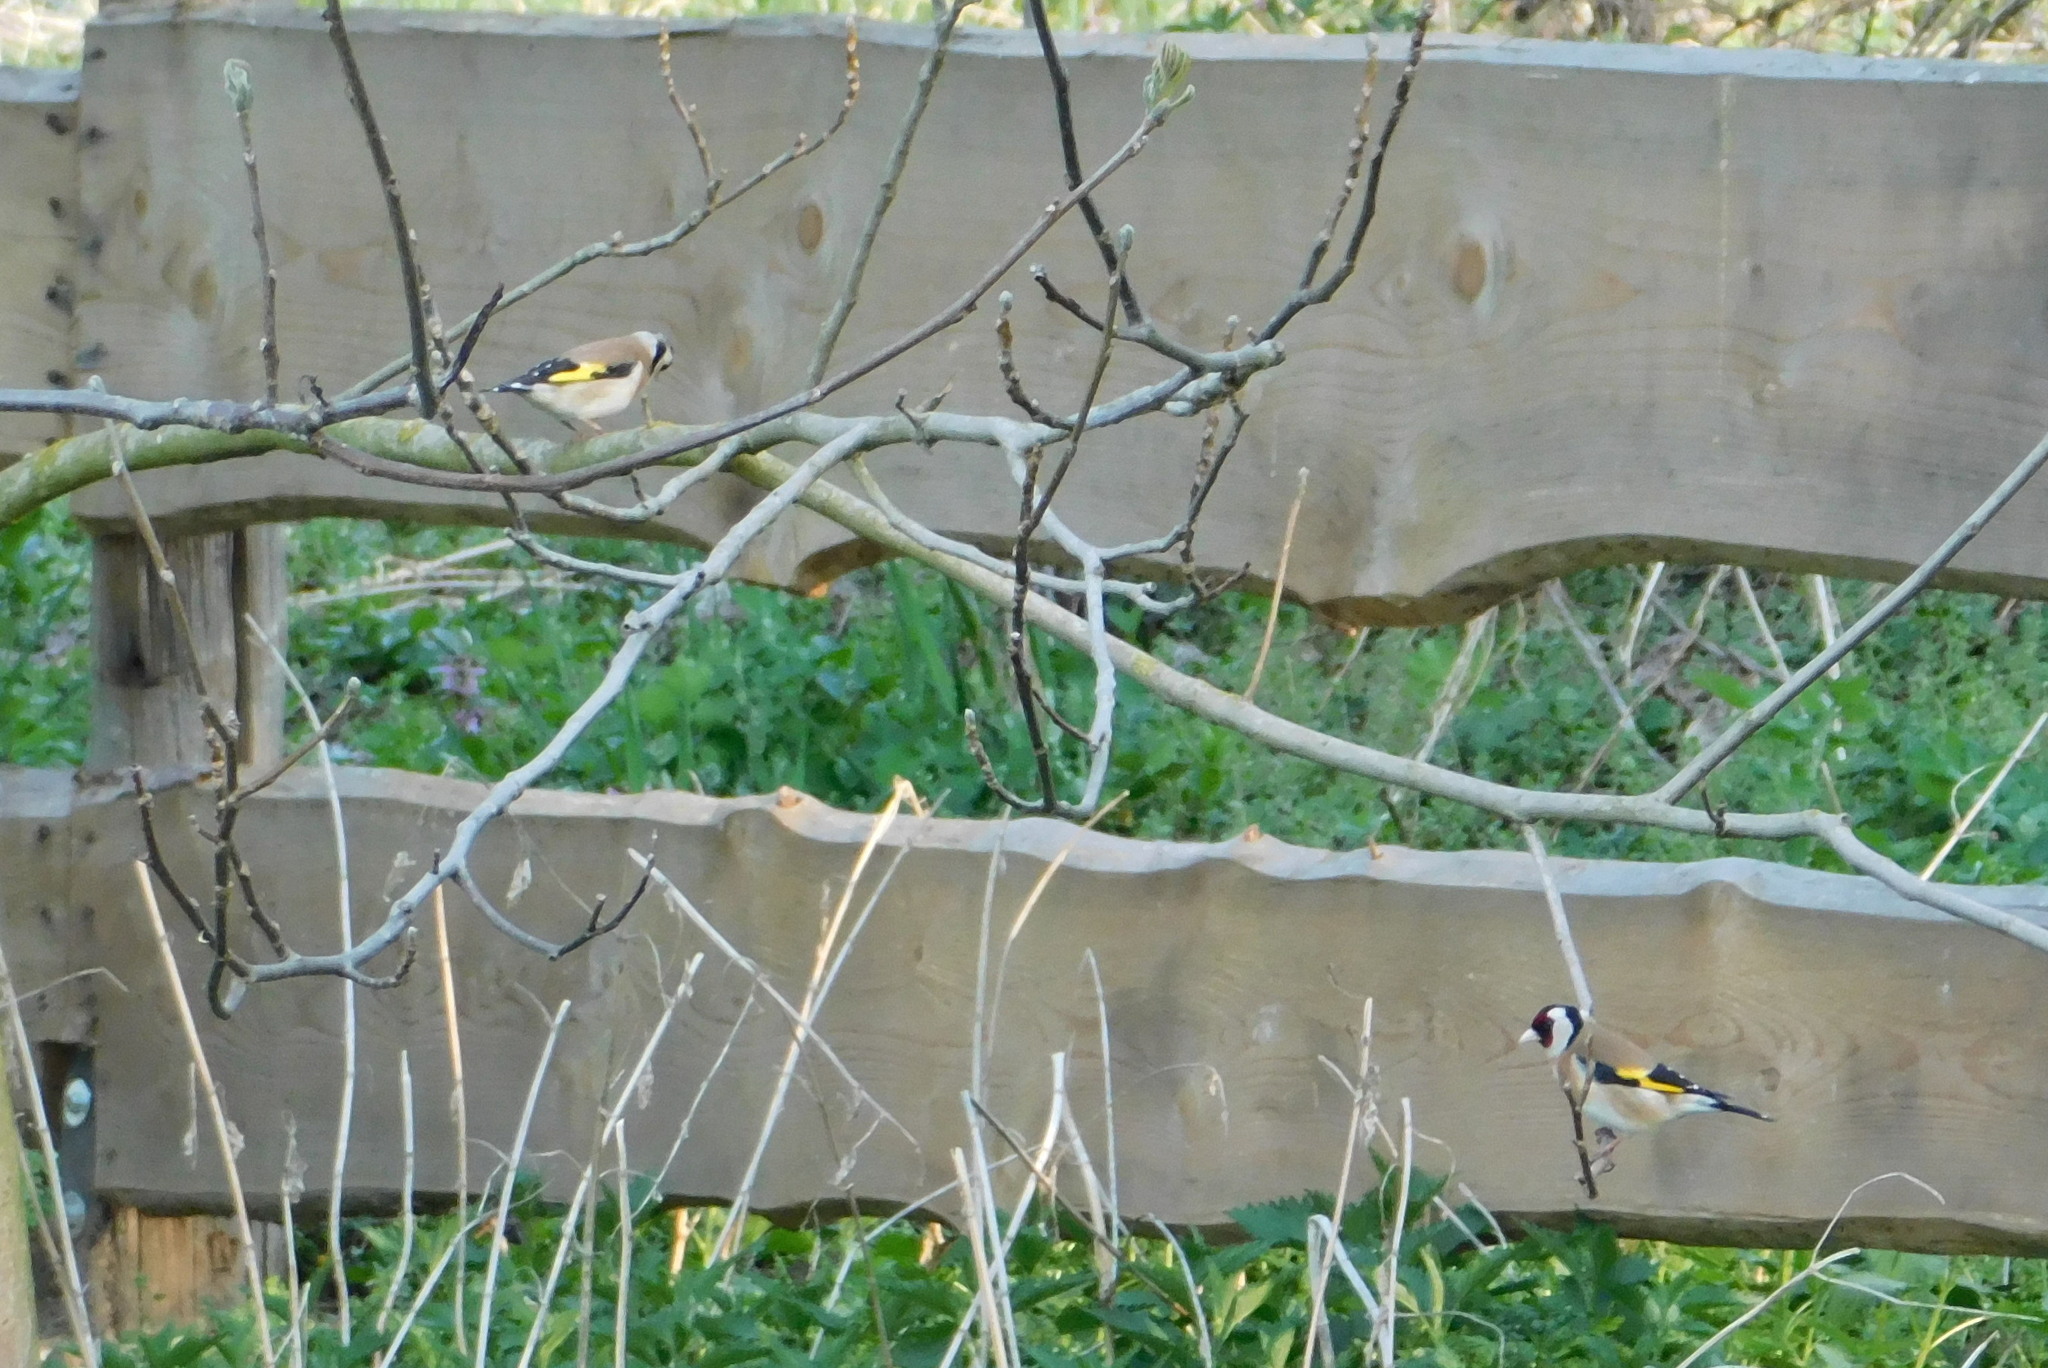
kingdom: Animalia
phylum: Chordata
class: Aves
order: Passeriformes
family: Fringillidae
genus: Carduelis
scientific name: Carduelis carduelis
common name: European goldfinch
